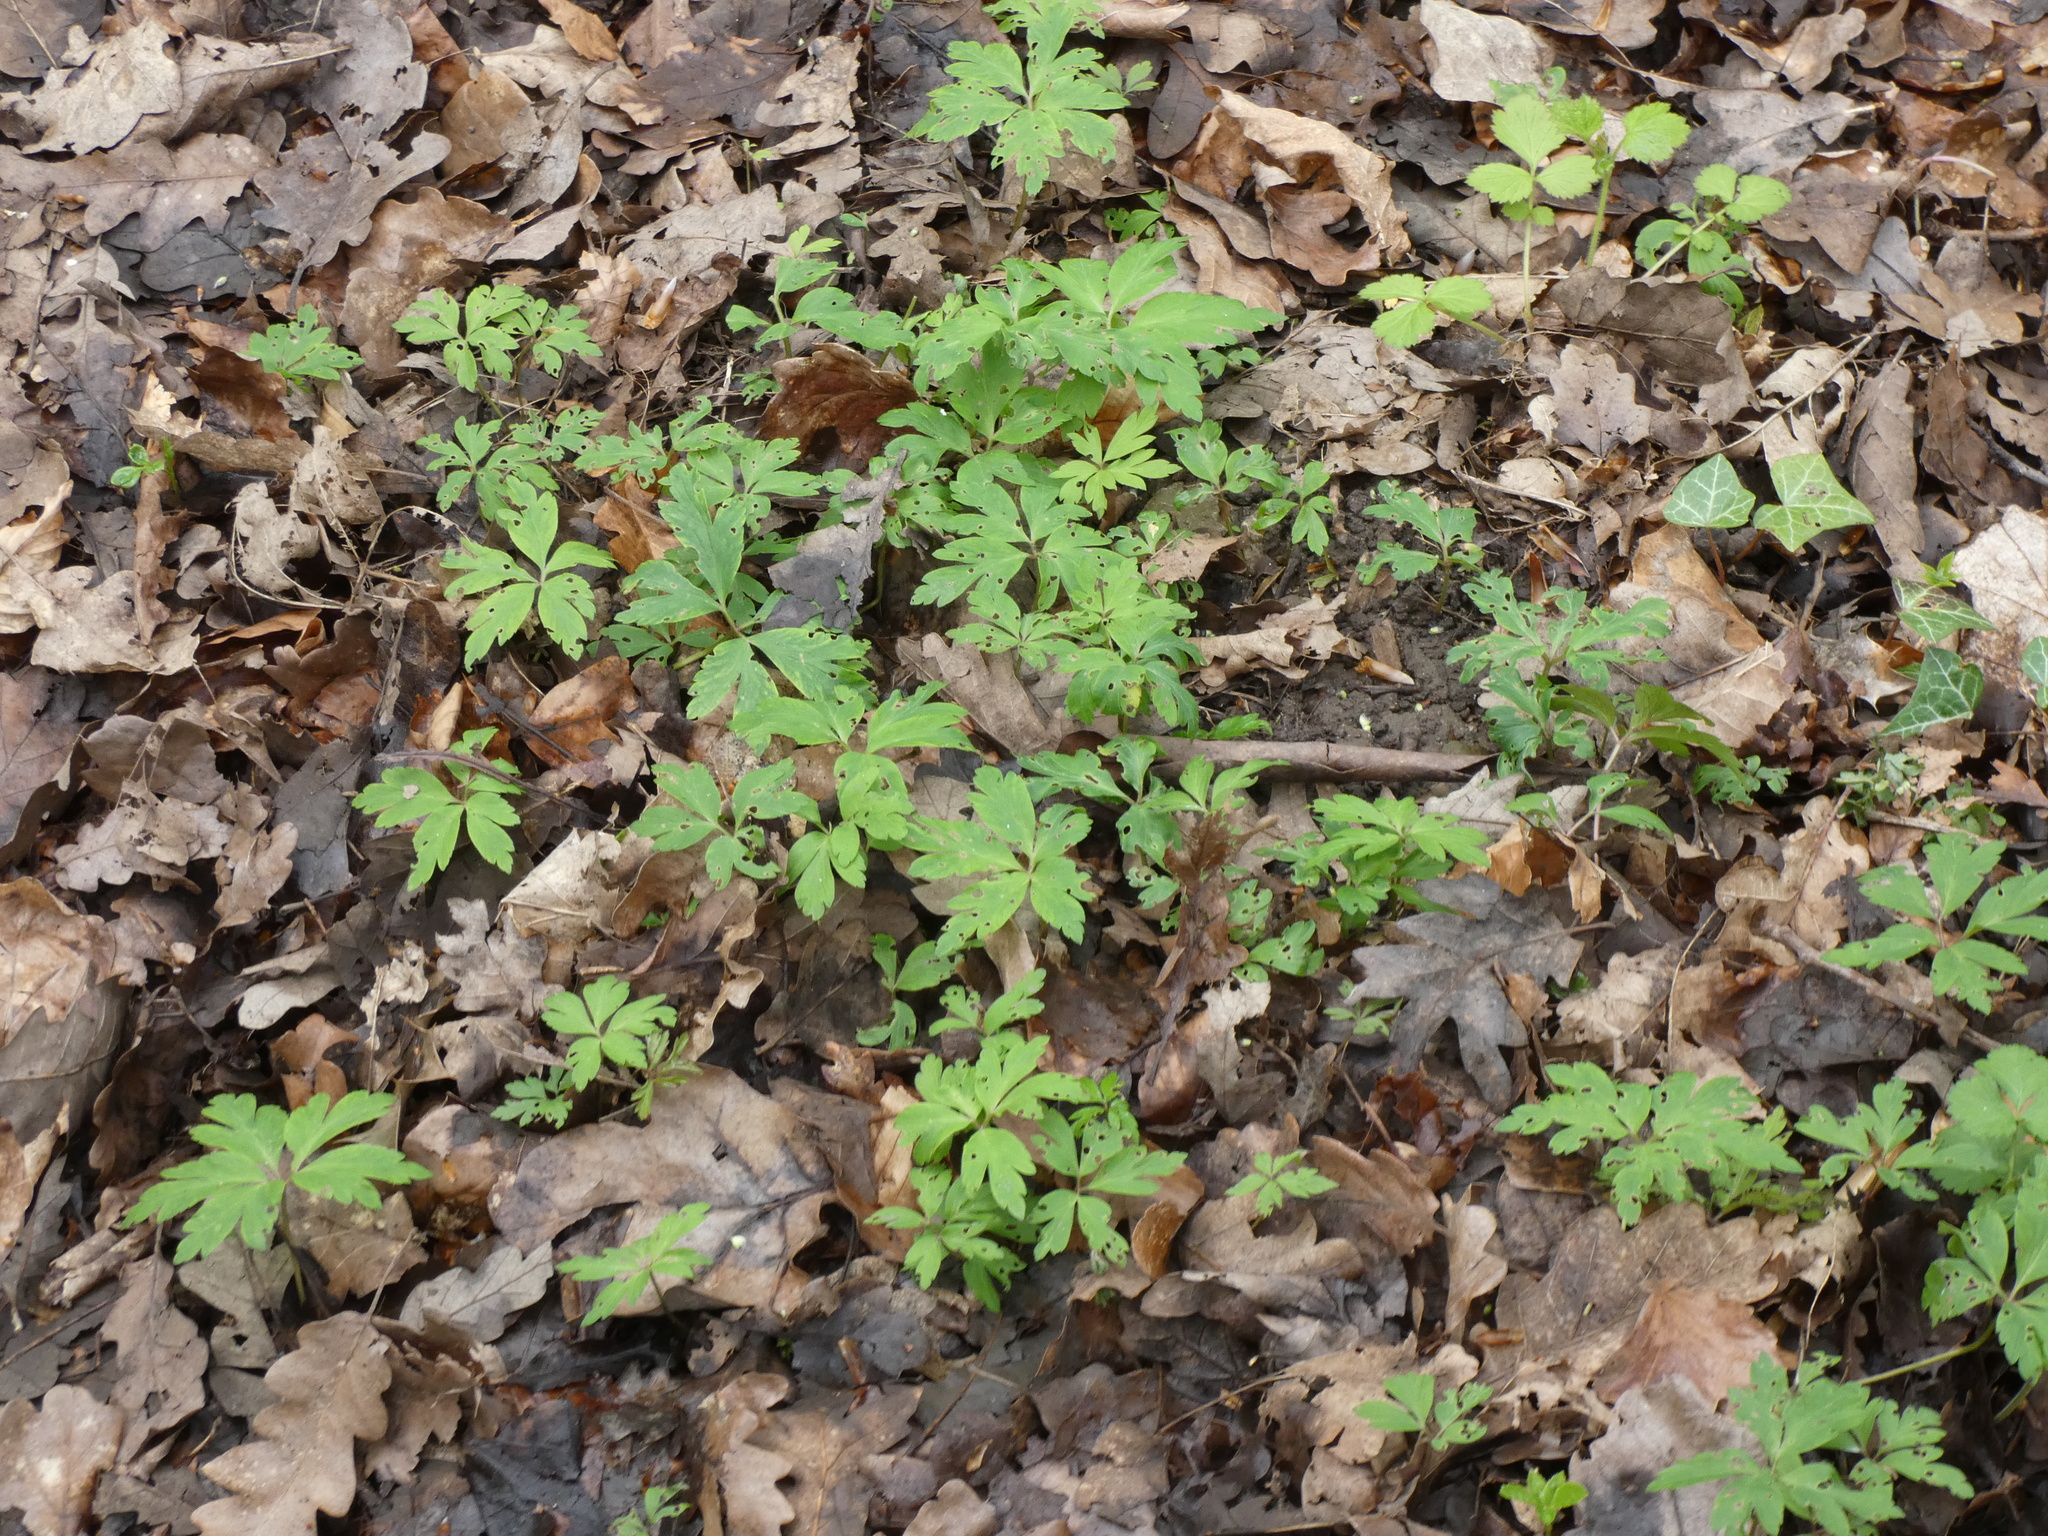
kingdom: Plantae
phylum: Tracheophyta
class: Magnoliopsida
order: Ranunculales
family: Ranunculaceae
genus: Anemone
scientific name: Anemone nemorosa
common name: Wood anemone
